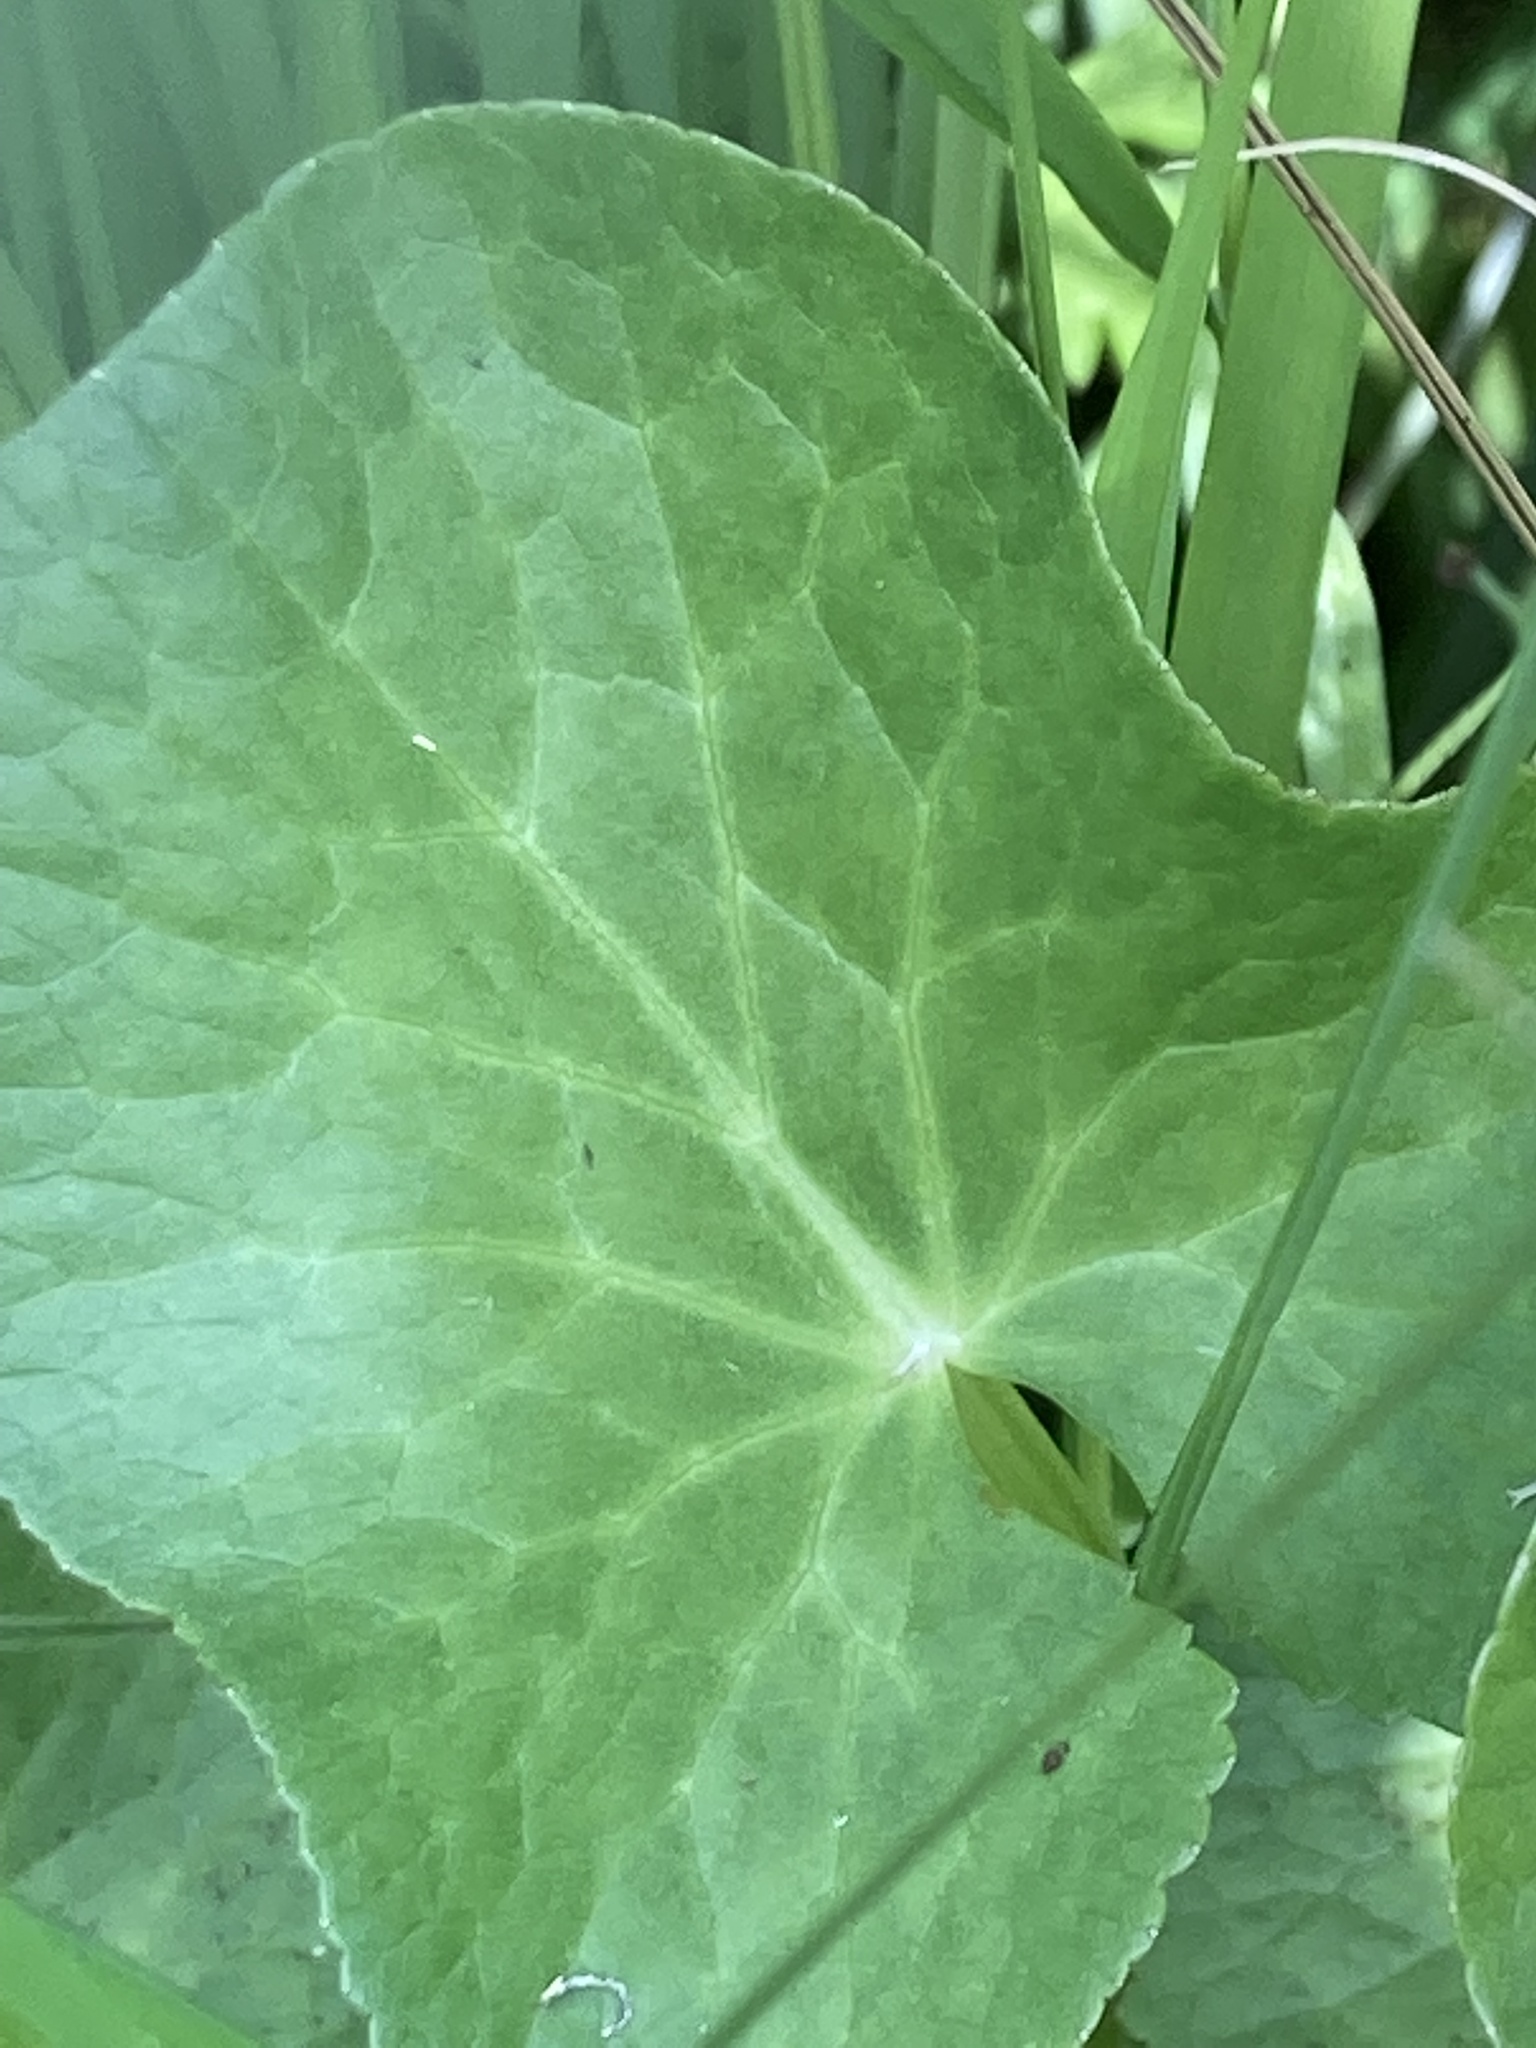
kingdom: Plantae
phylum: Tracheophyta
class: Magnoliopsida
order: Ranunculales
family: Ranunculaceae
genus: Caltha
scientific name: Caltha palustris
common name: Marsh marigold
